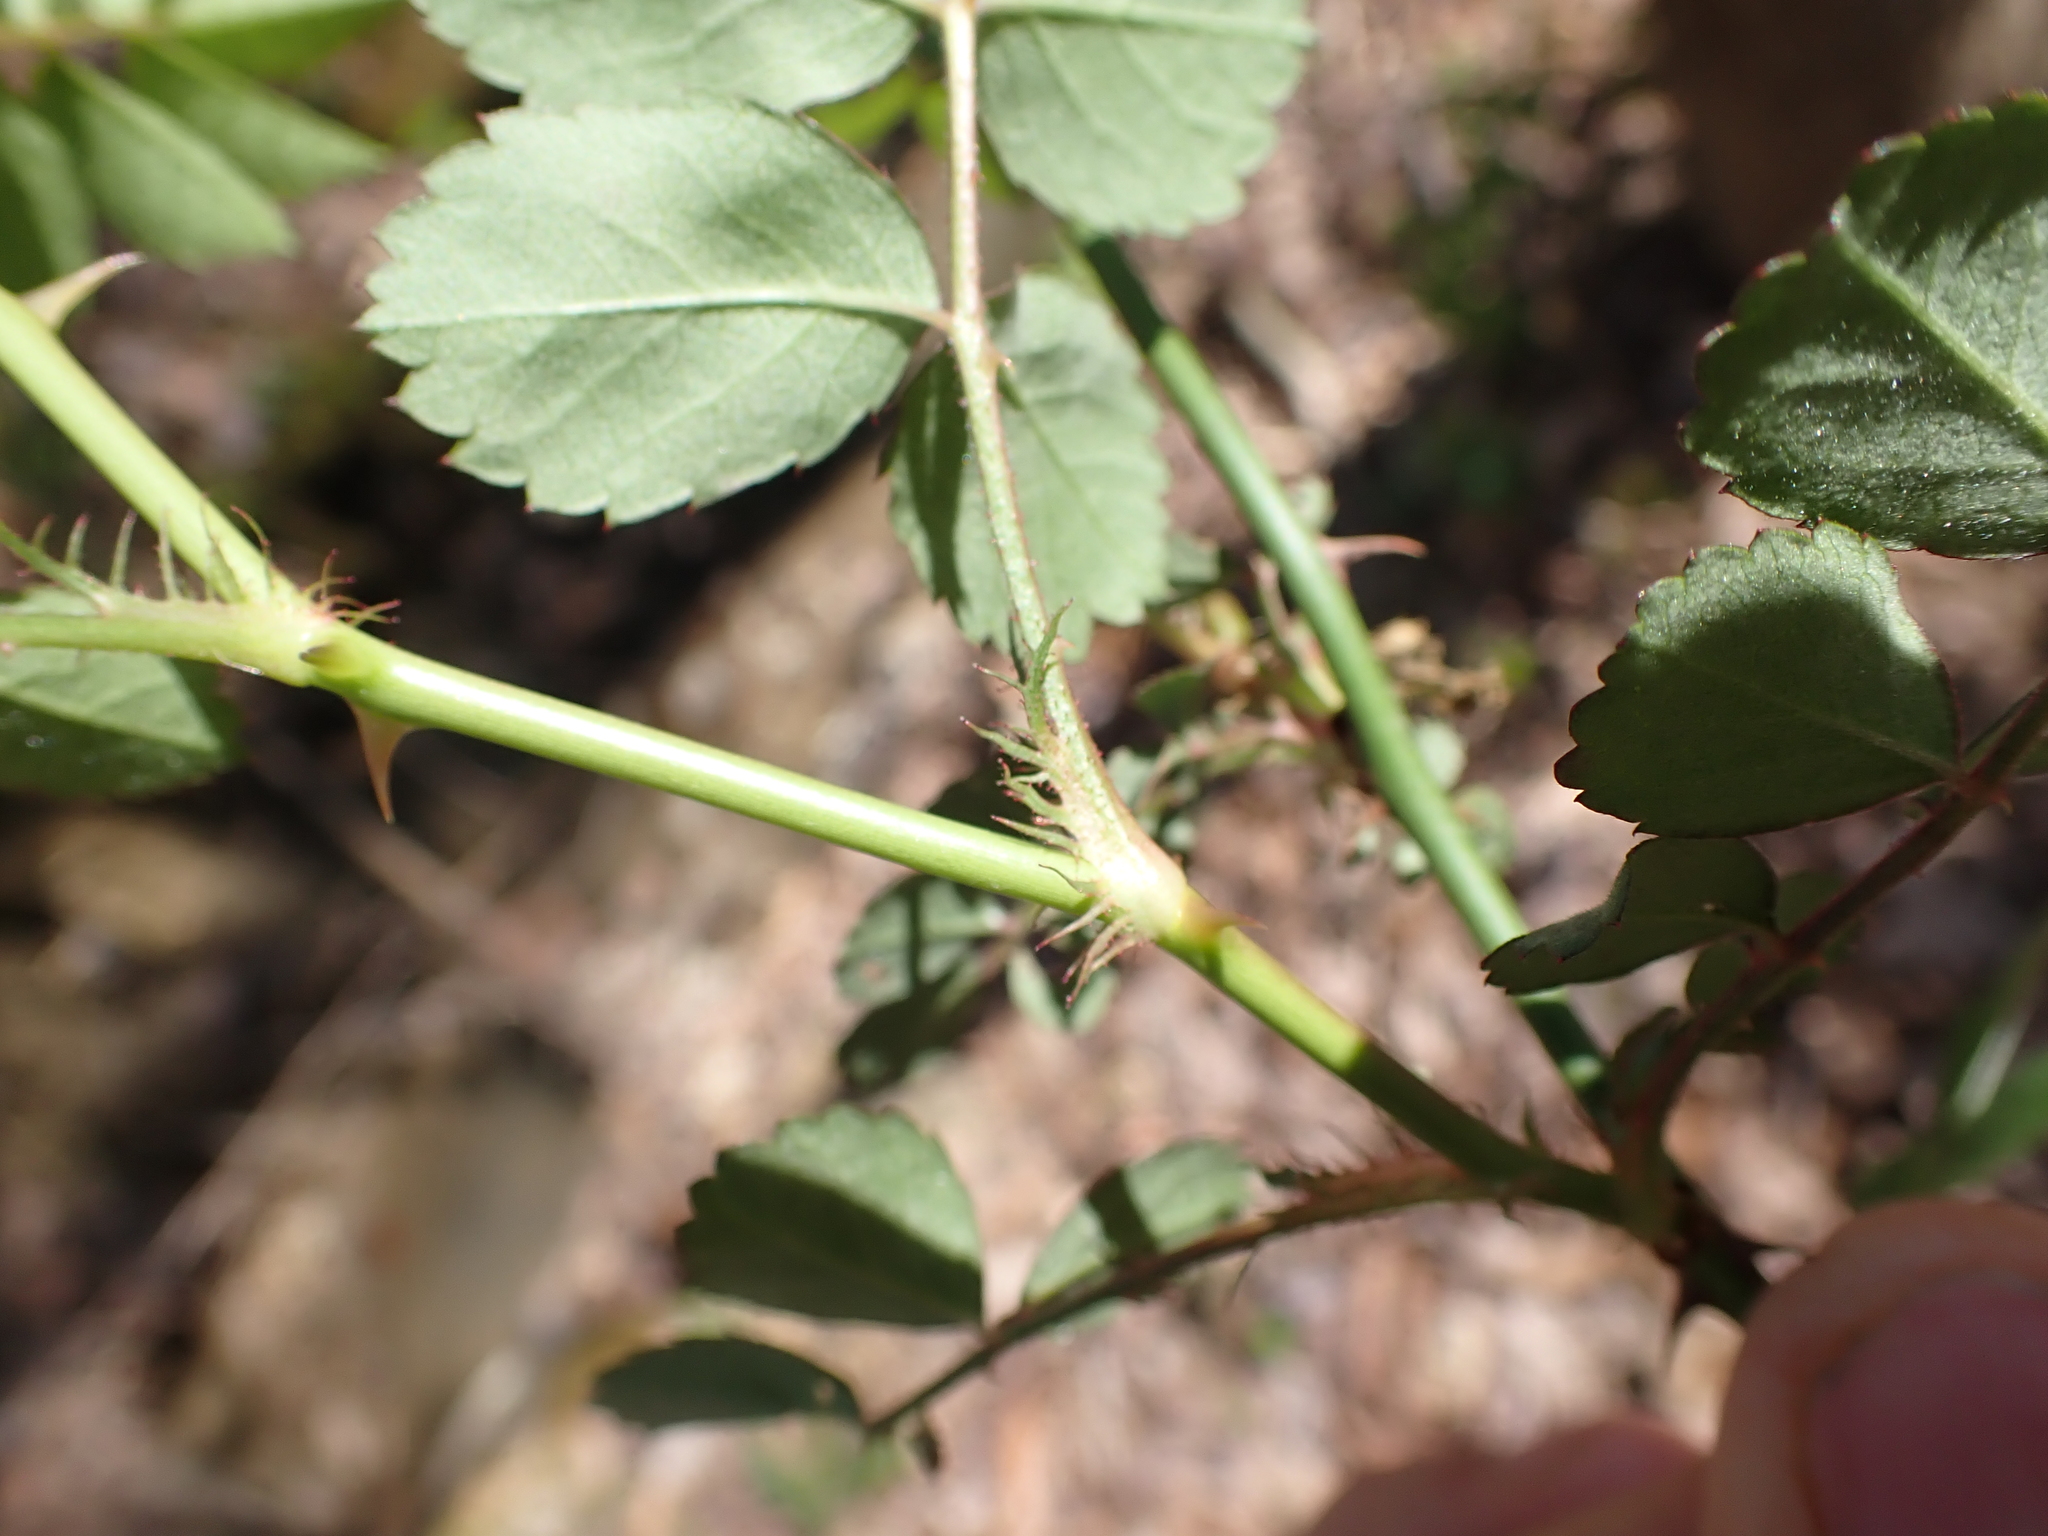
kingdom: Plantae
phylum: Tracheophyta
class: Magnoliopsida
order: Rosales
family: Rosaceae
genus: Rosa
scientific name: Rosa multiflora
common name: Multiflora rose
